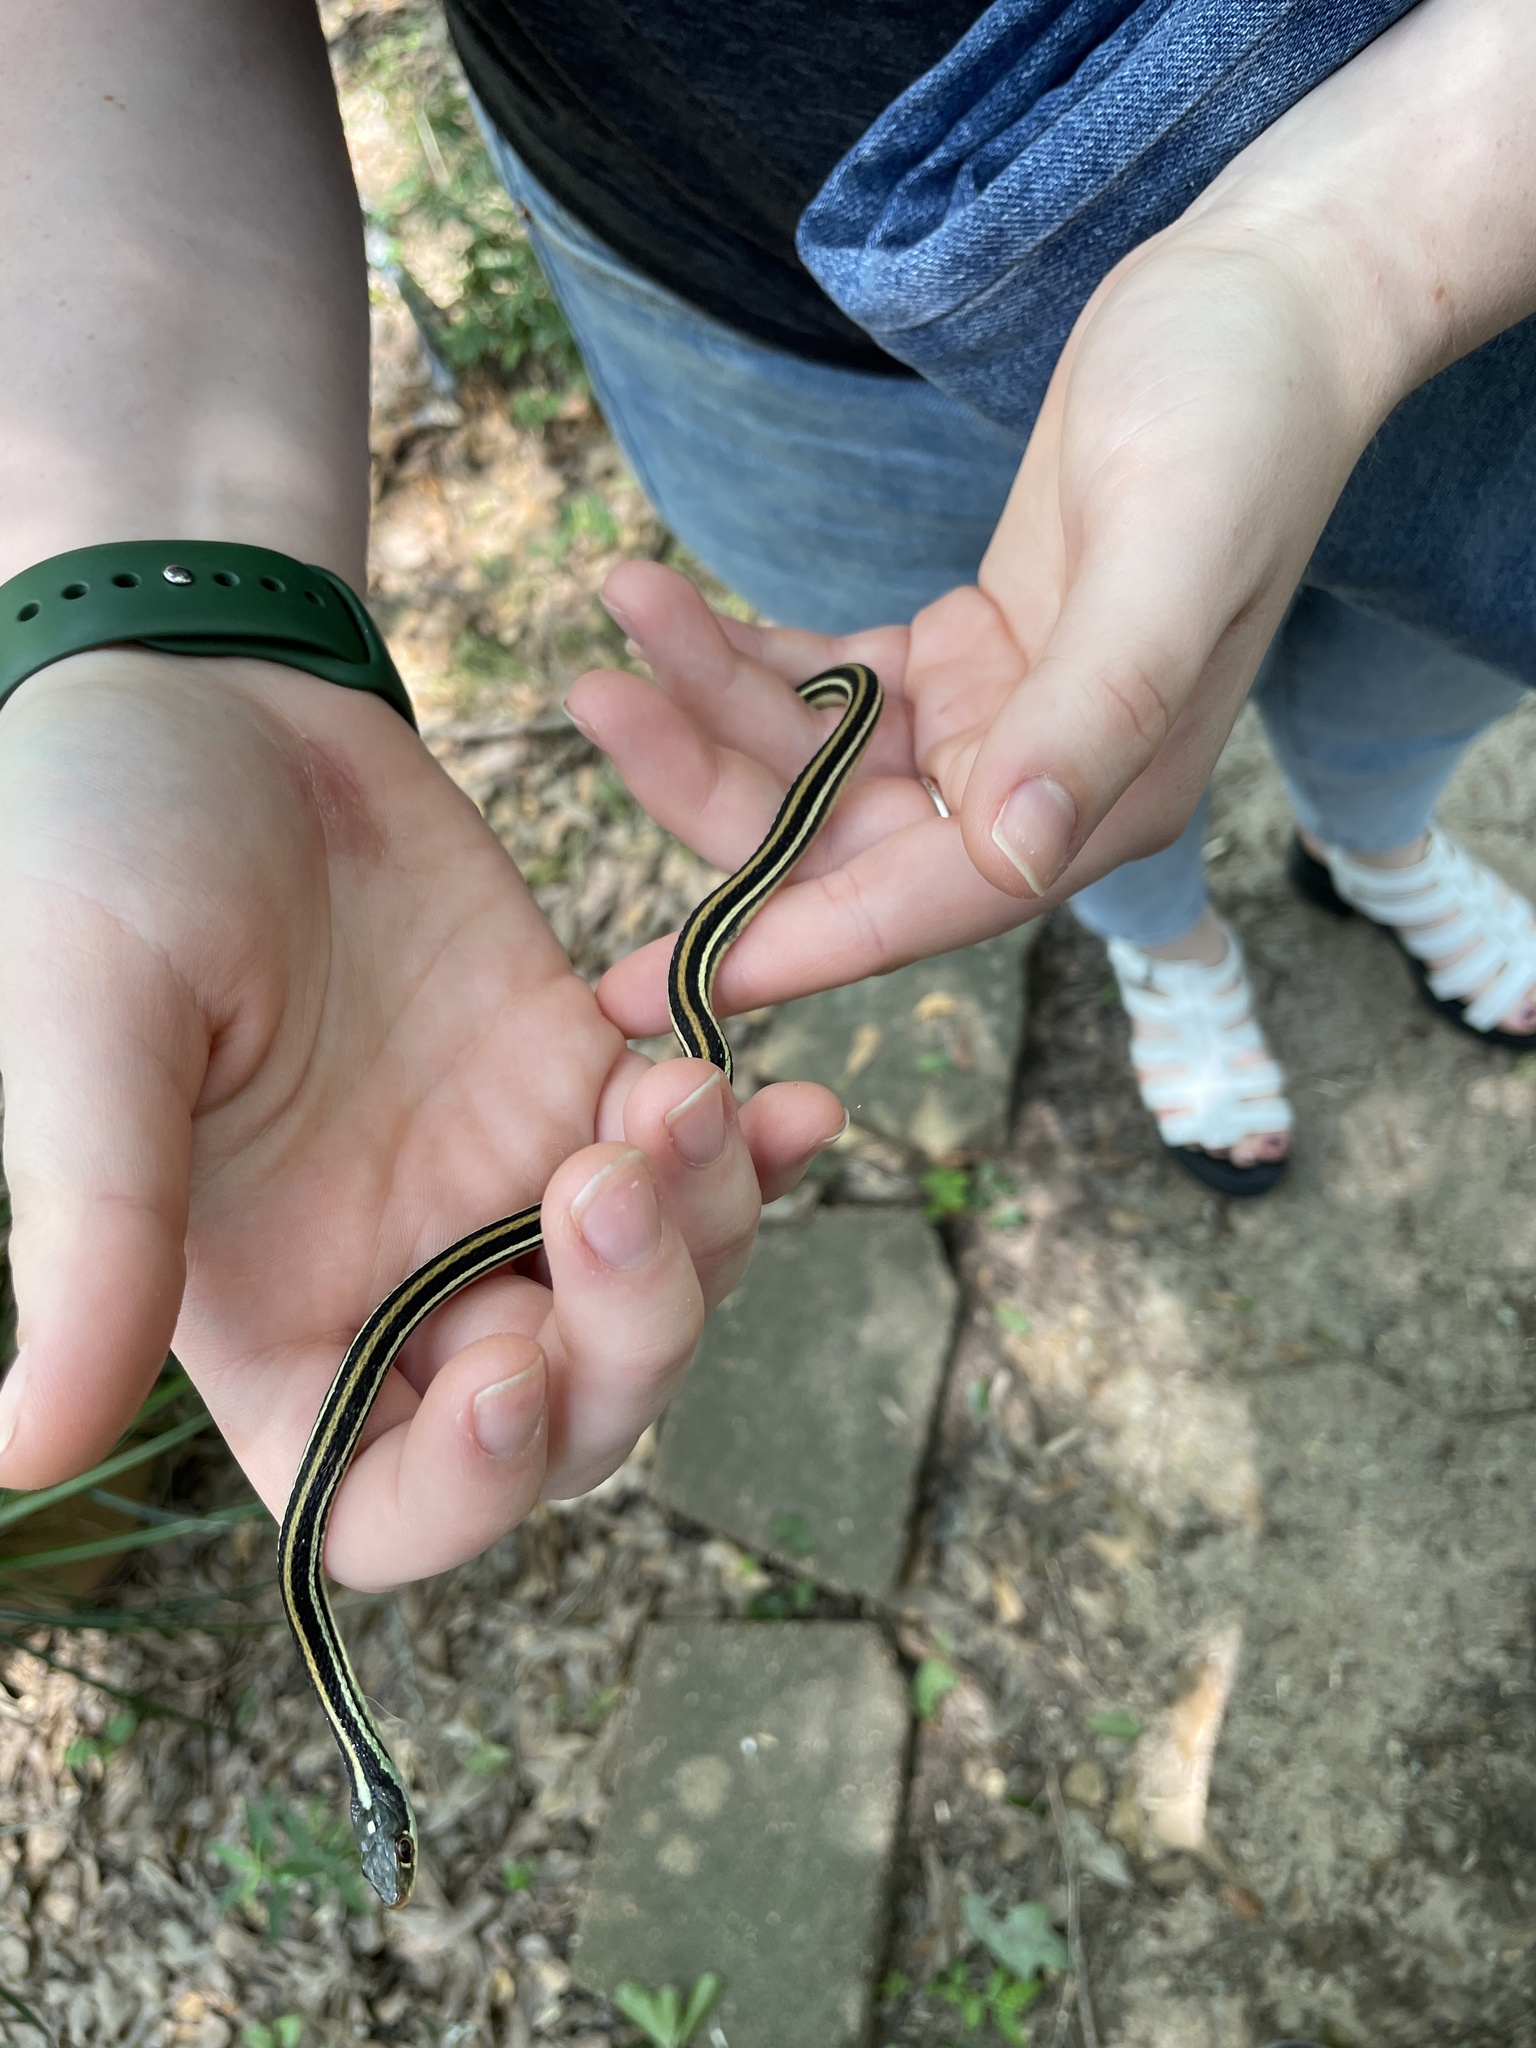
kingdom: Animalia
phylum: Chordata
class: Squamata
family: Colubridae
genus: Thamnophis
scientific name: Thamnophis proximus
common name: Western ribbon snake
